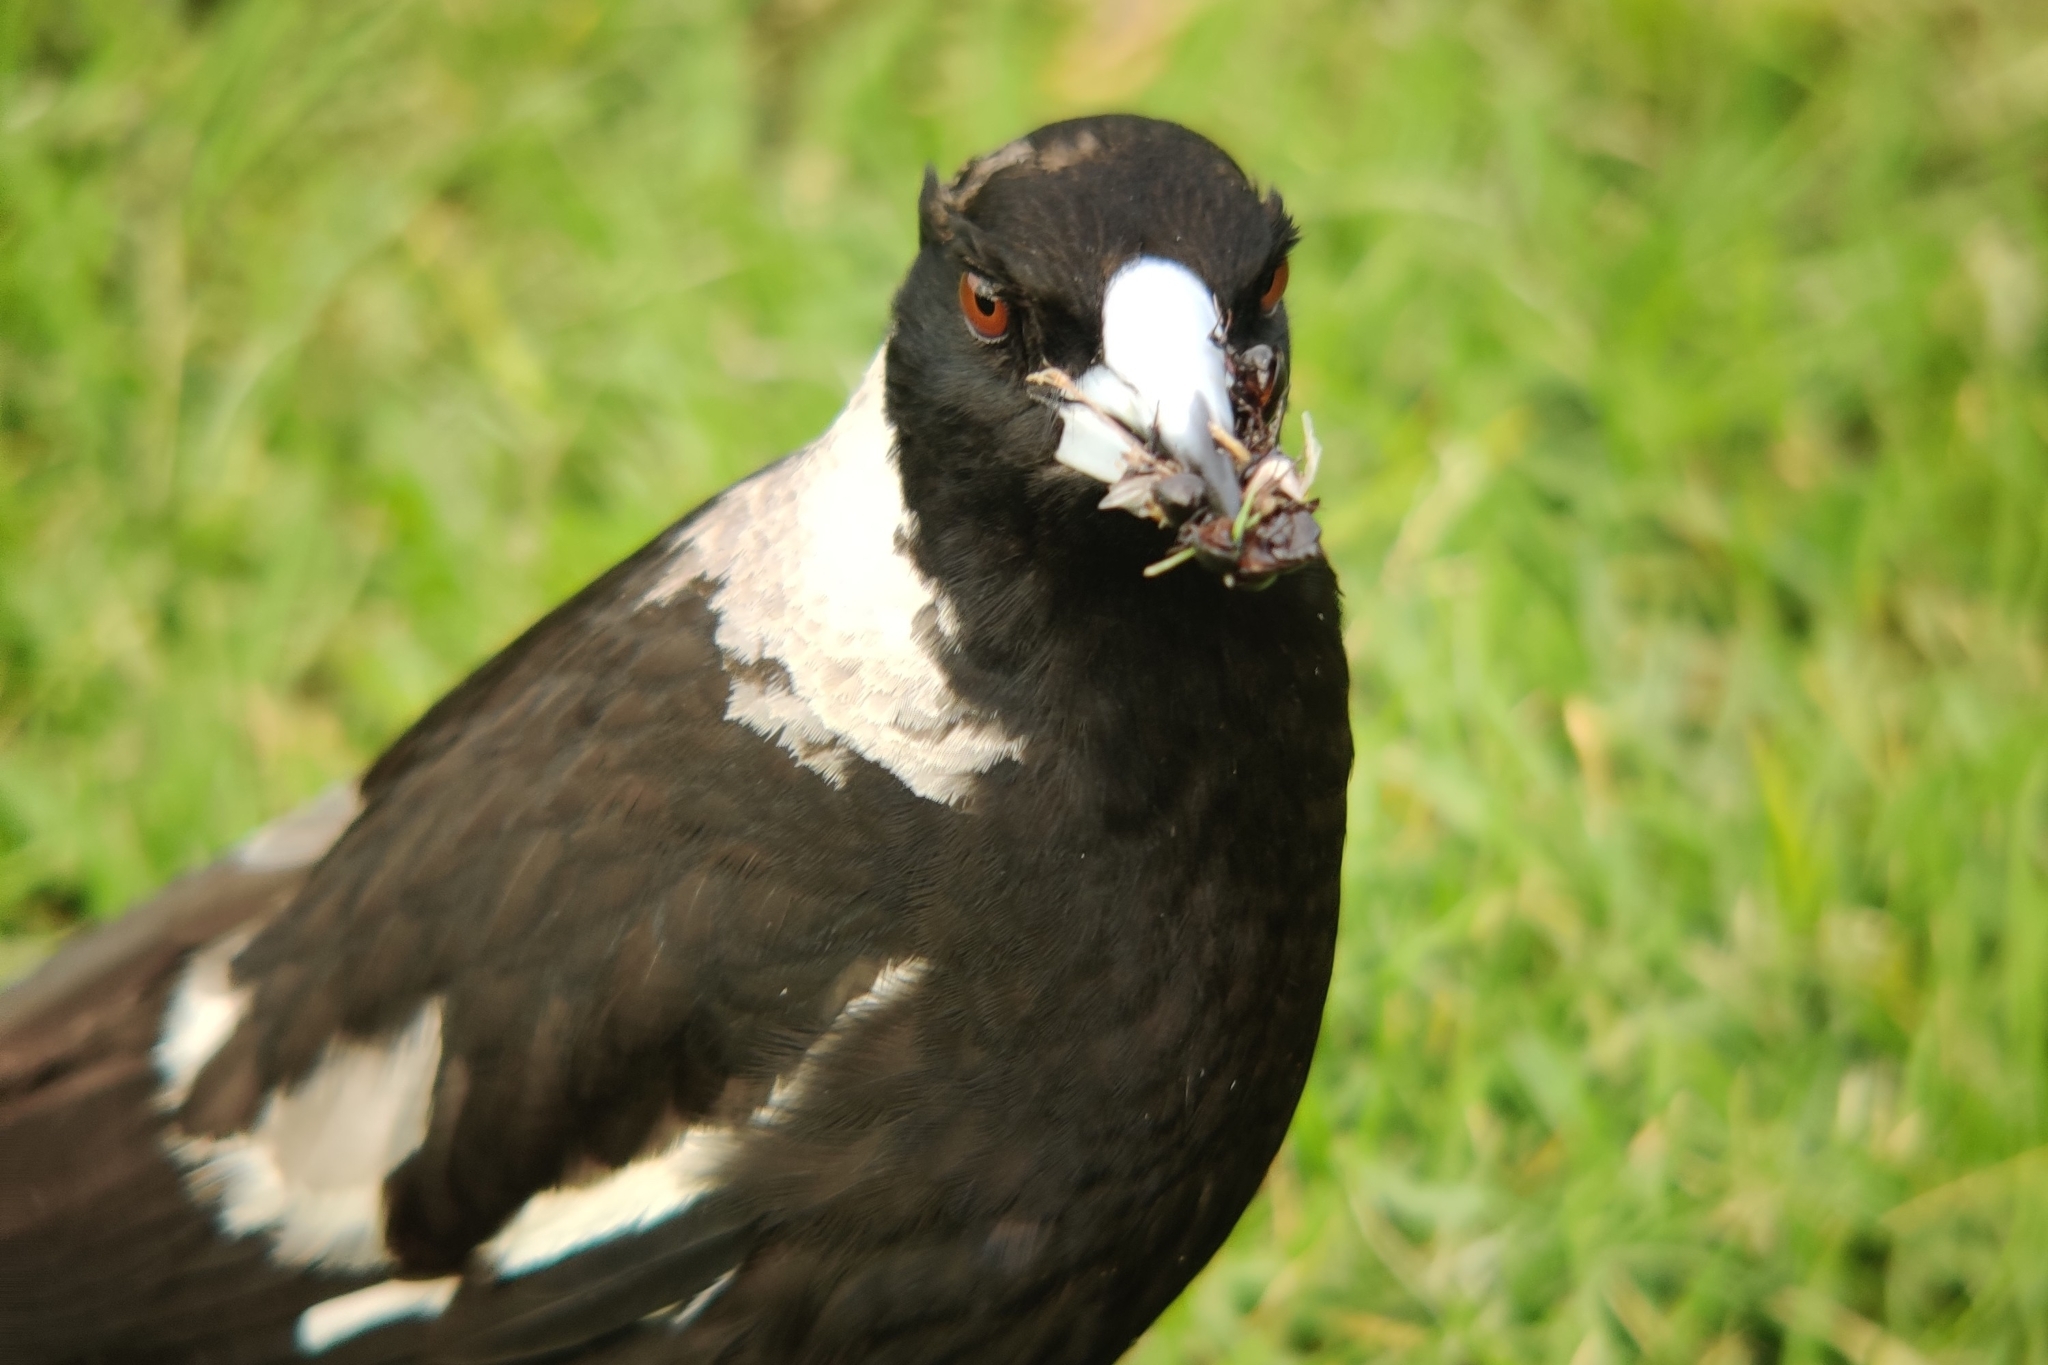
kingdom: Animalia
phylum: Chordata
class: Aves
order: Passeriformes
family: Cracticidae
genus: Gymnorhina
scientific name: Gymnorhina tibicen
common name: Australian magpie
